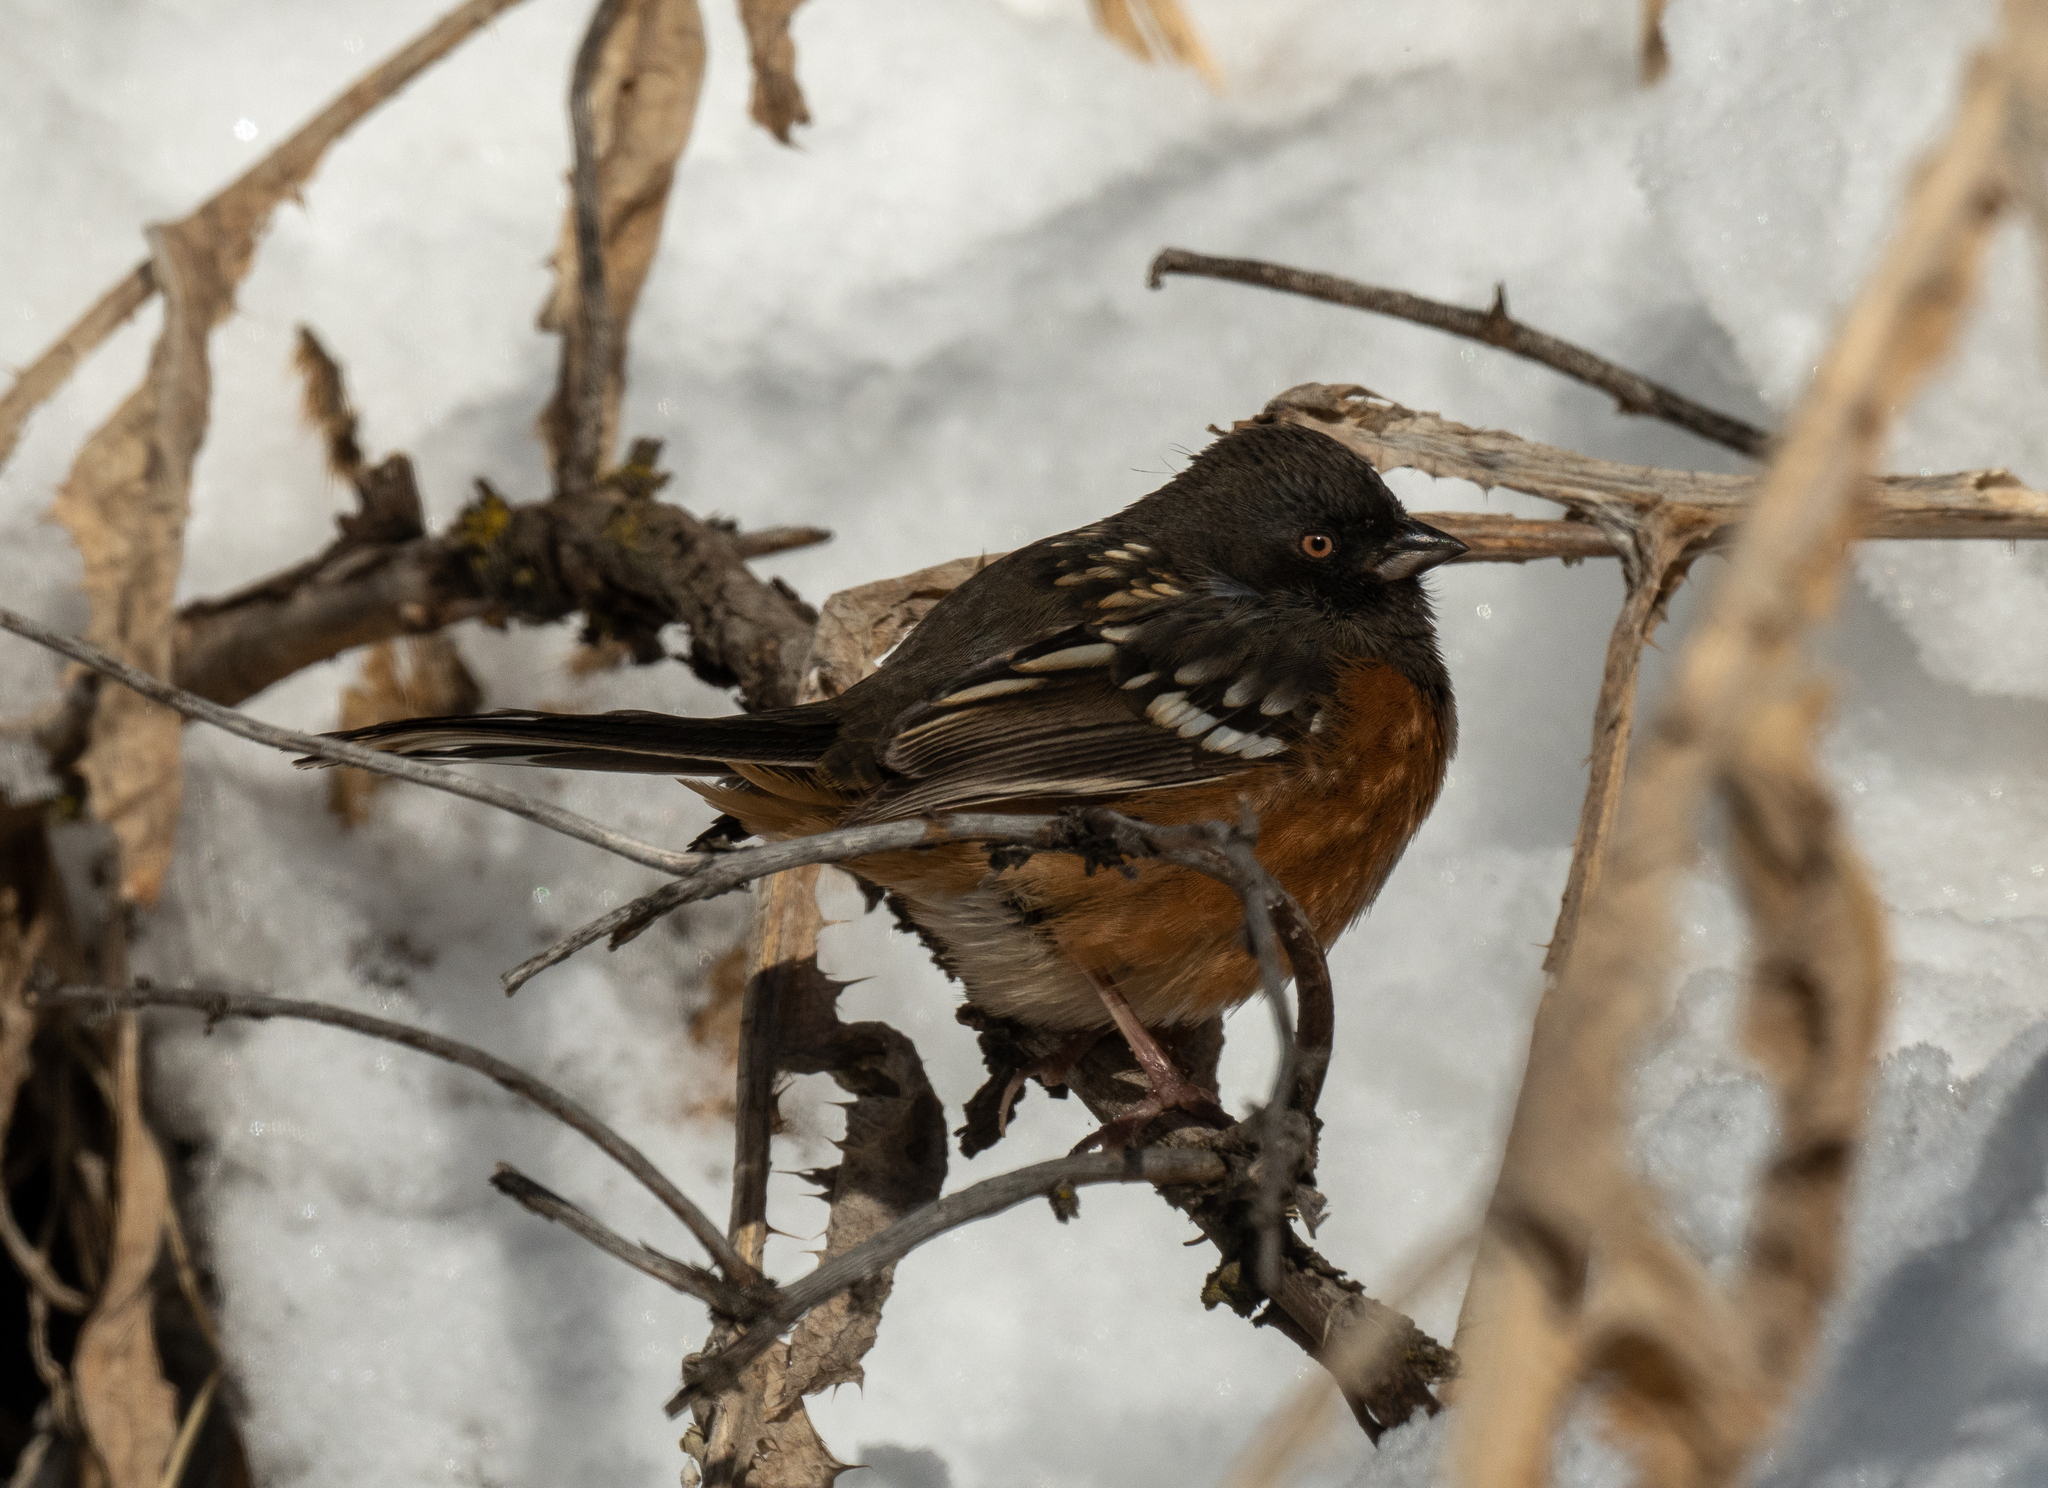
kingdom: Animalia
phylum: Chordata
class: Aves
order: Passeriformes
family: Passerellidae
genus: Pipilo
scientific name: Pipilo maculatus
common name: Spotted towhee
